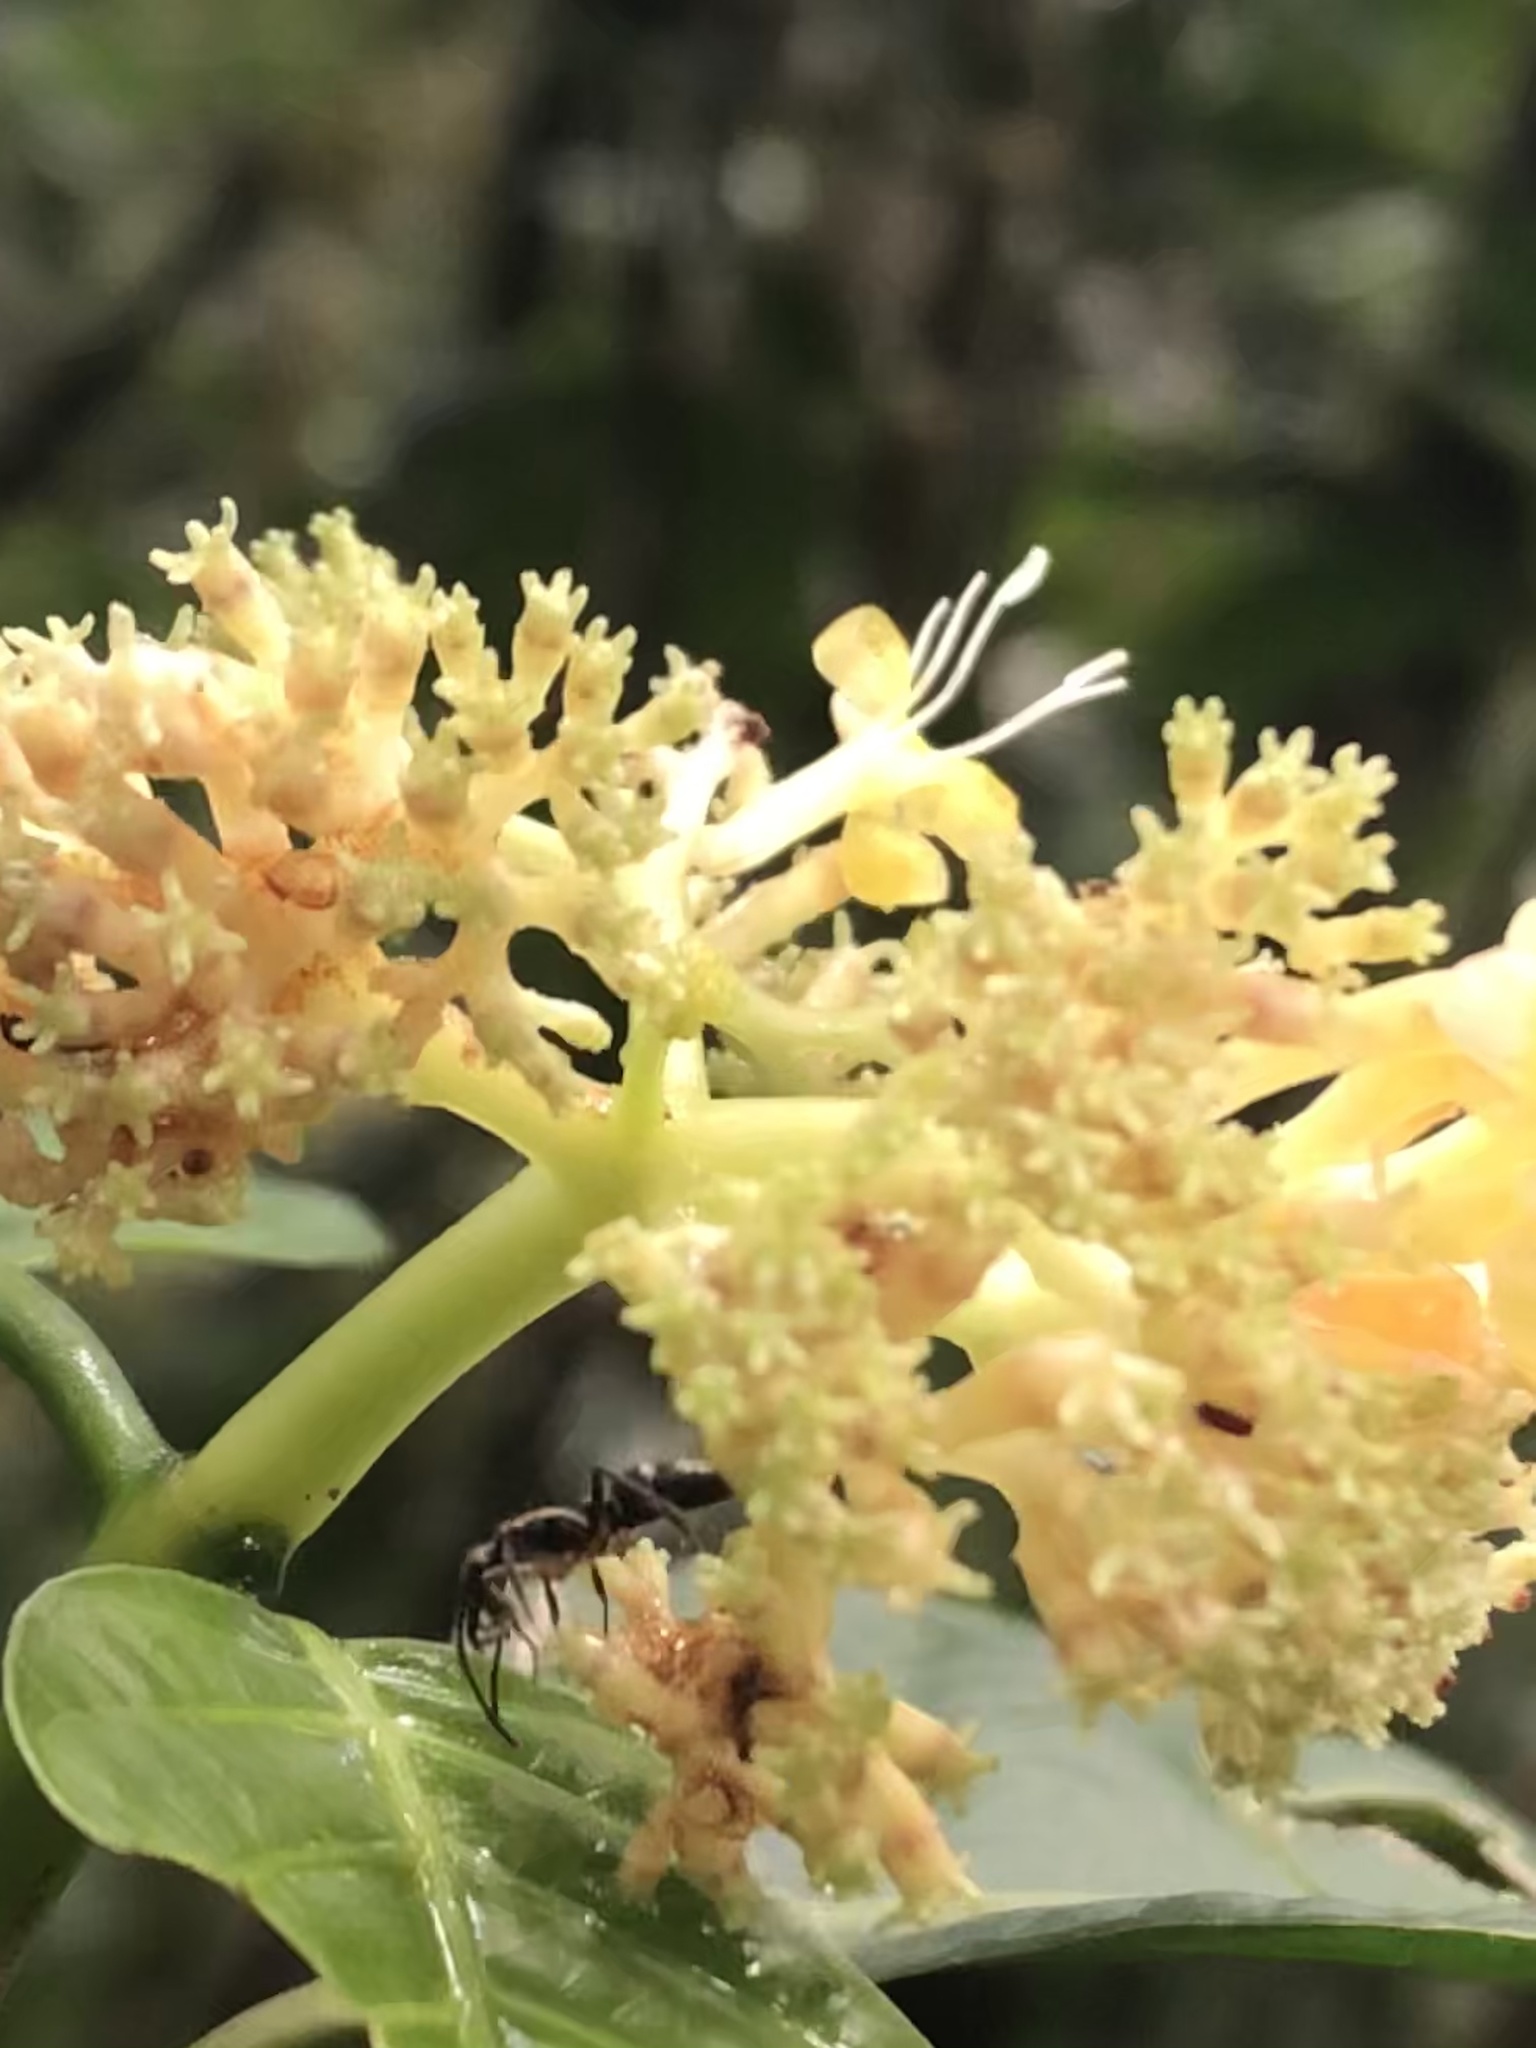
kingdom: Plantae
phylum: Tracheophyta
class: Magnoliopsida
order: Gentianales
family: Rubiaceae
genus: Palicourea
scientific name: Palicourea didymocarpos
